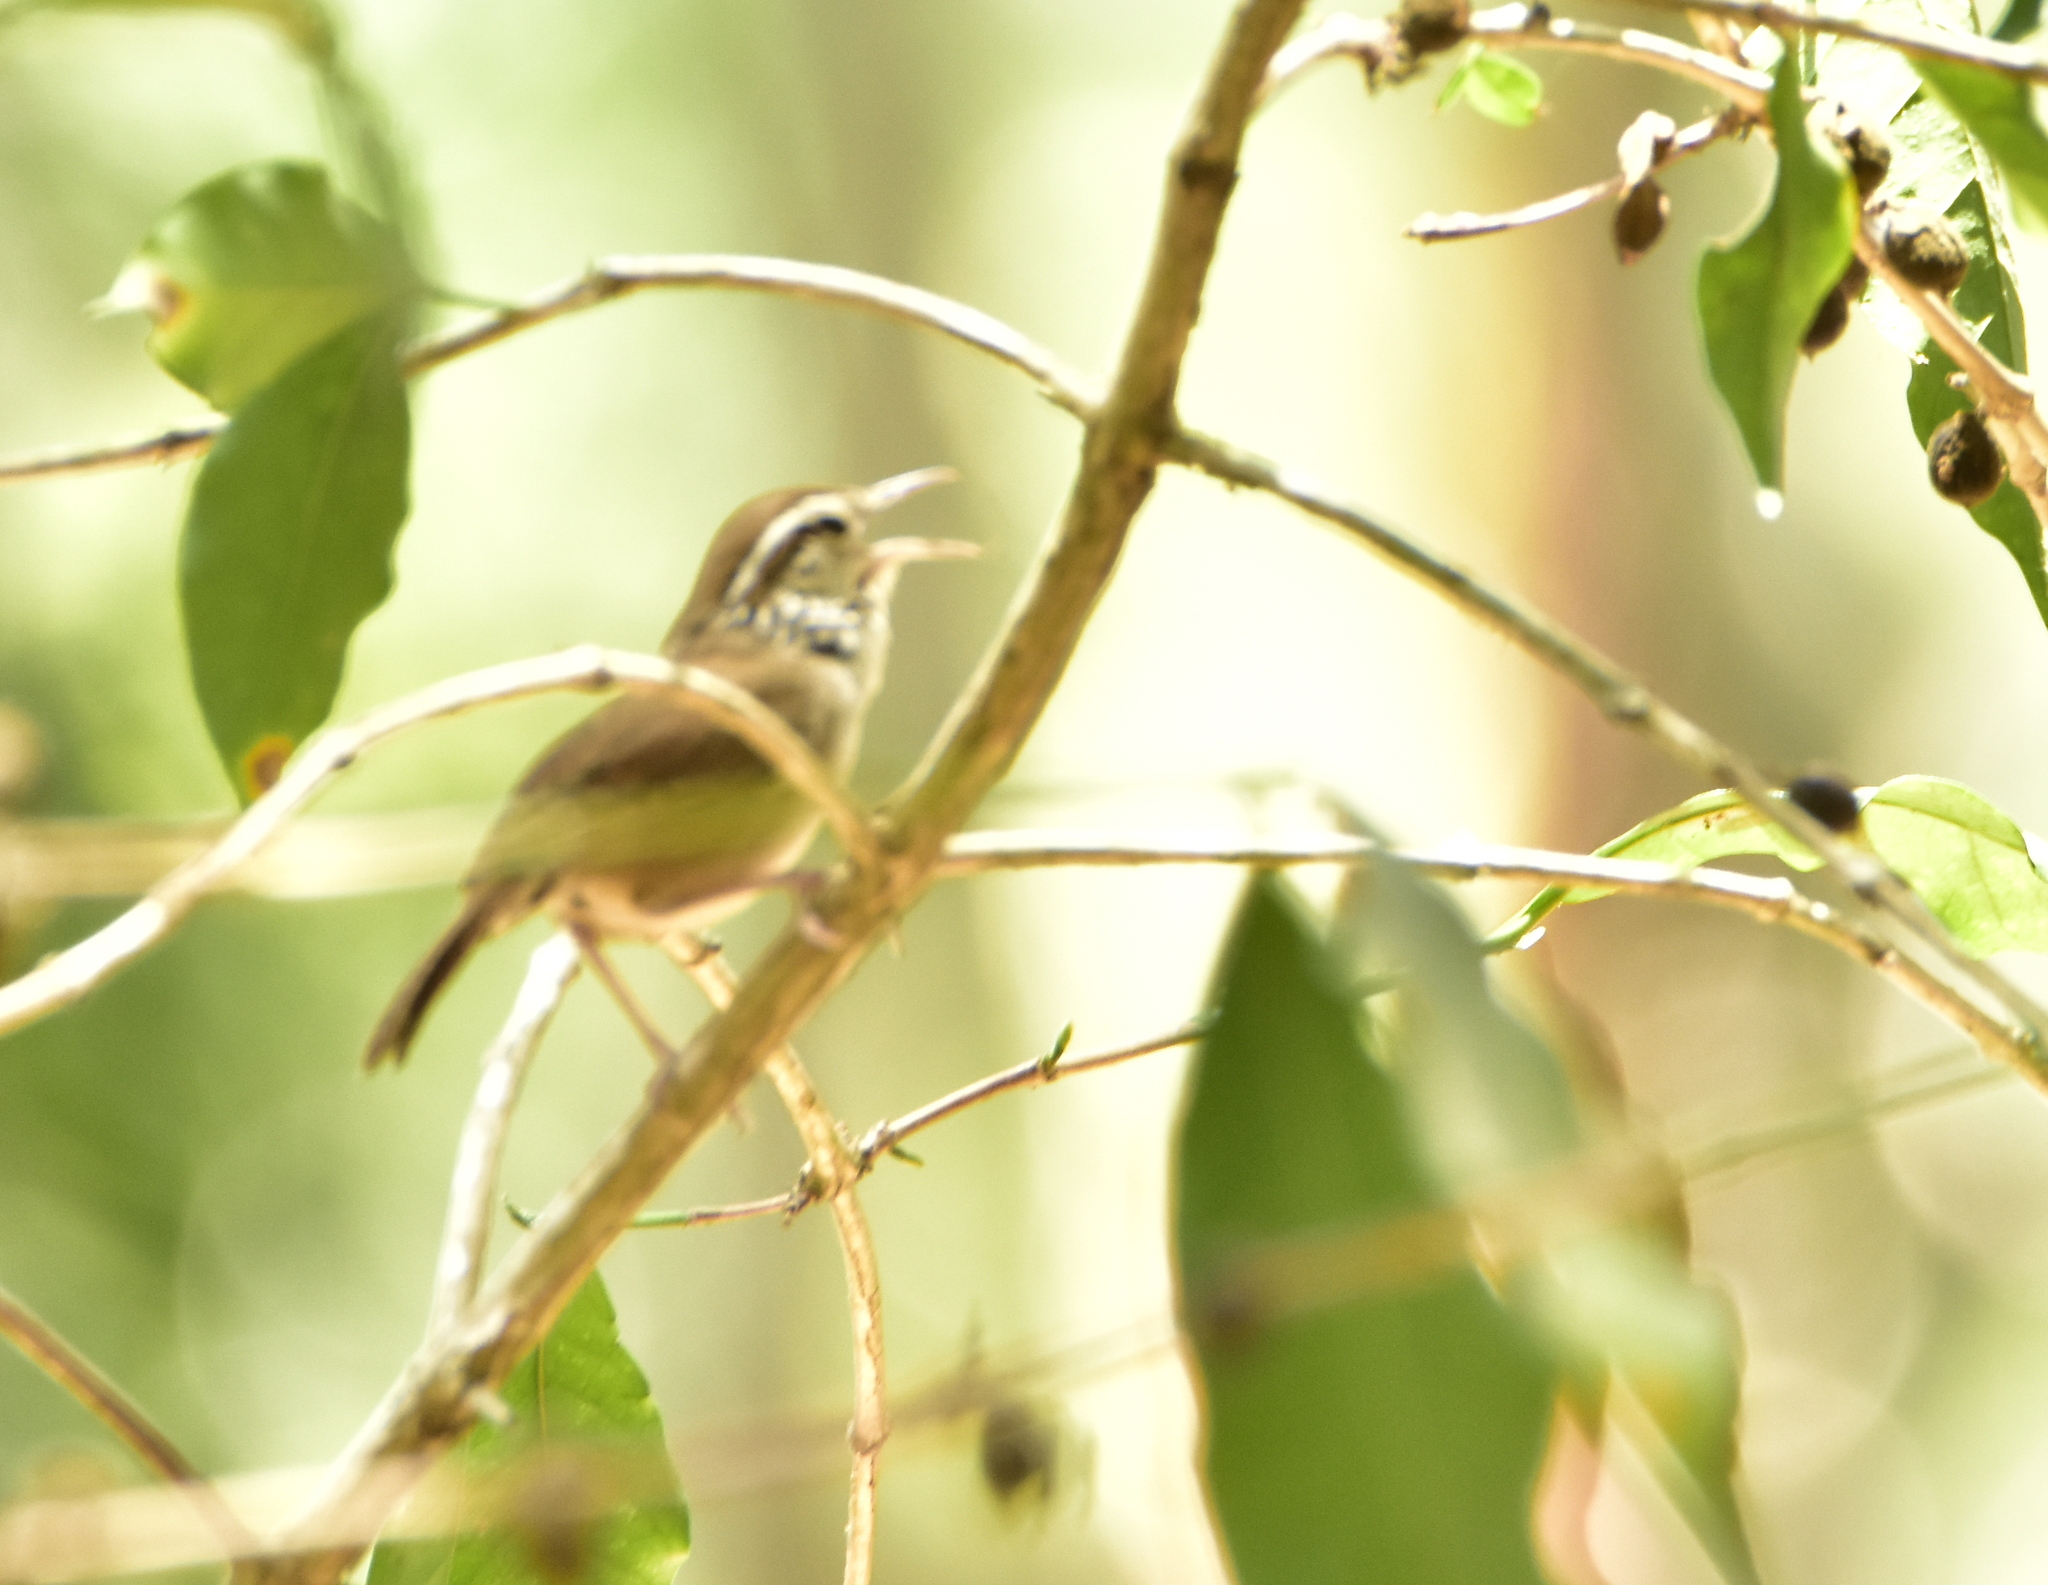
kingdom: Animalia
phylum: Chordata
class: Aves
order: Passeriformes
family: Troglodytidae
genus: Thryophilus
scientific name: Thryophilus sinaloa
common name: Sinaloa wren
